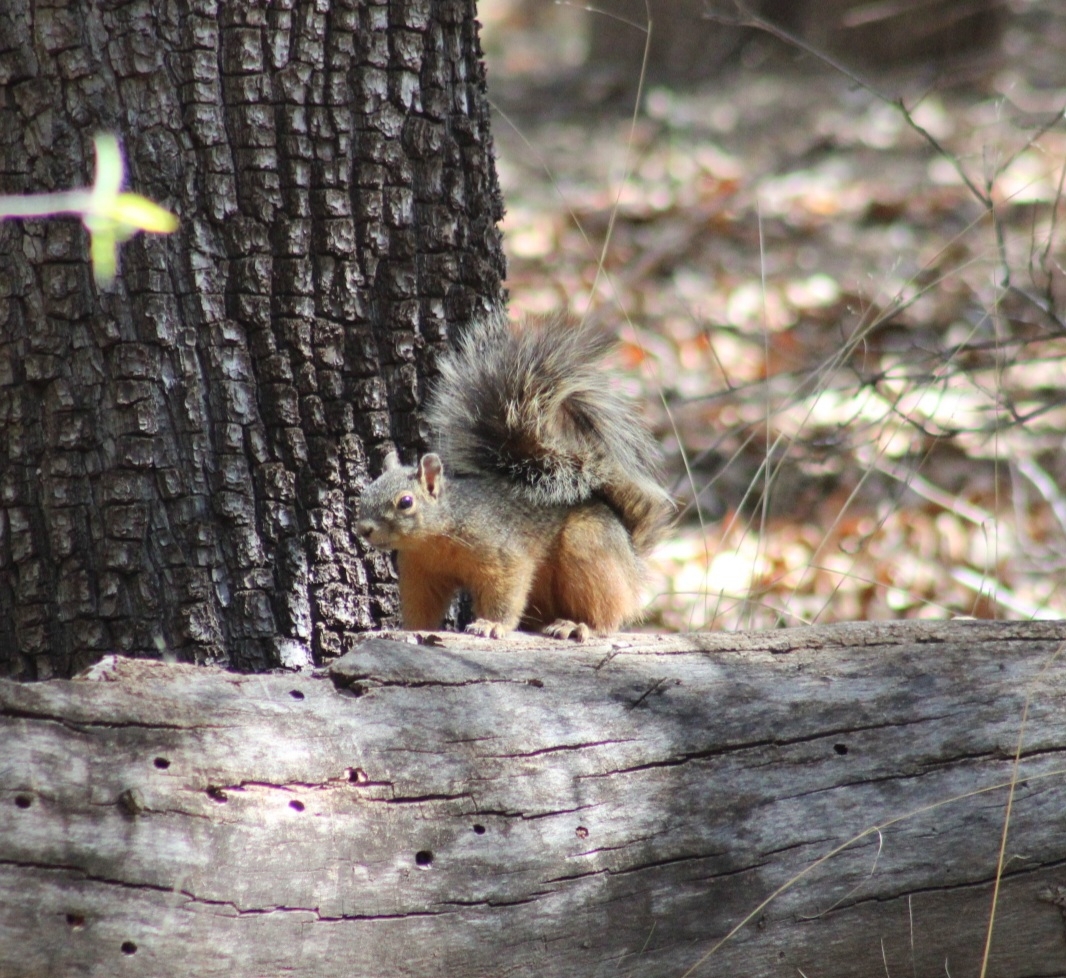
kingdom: Animalia
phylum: Chordata
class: Mammalia
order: Rodentia
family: Sciuridae
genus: Sciurus
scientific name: Sciurus nayaritensis
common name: Mexican fox squirrel
